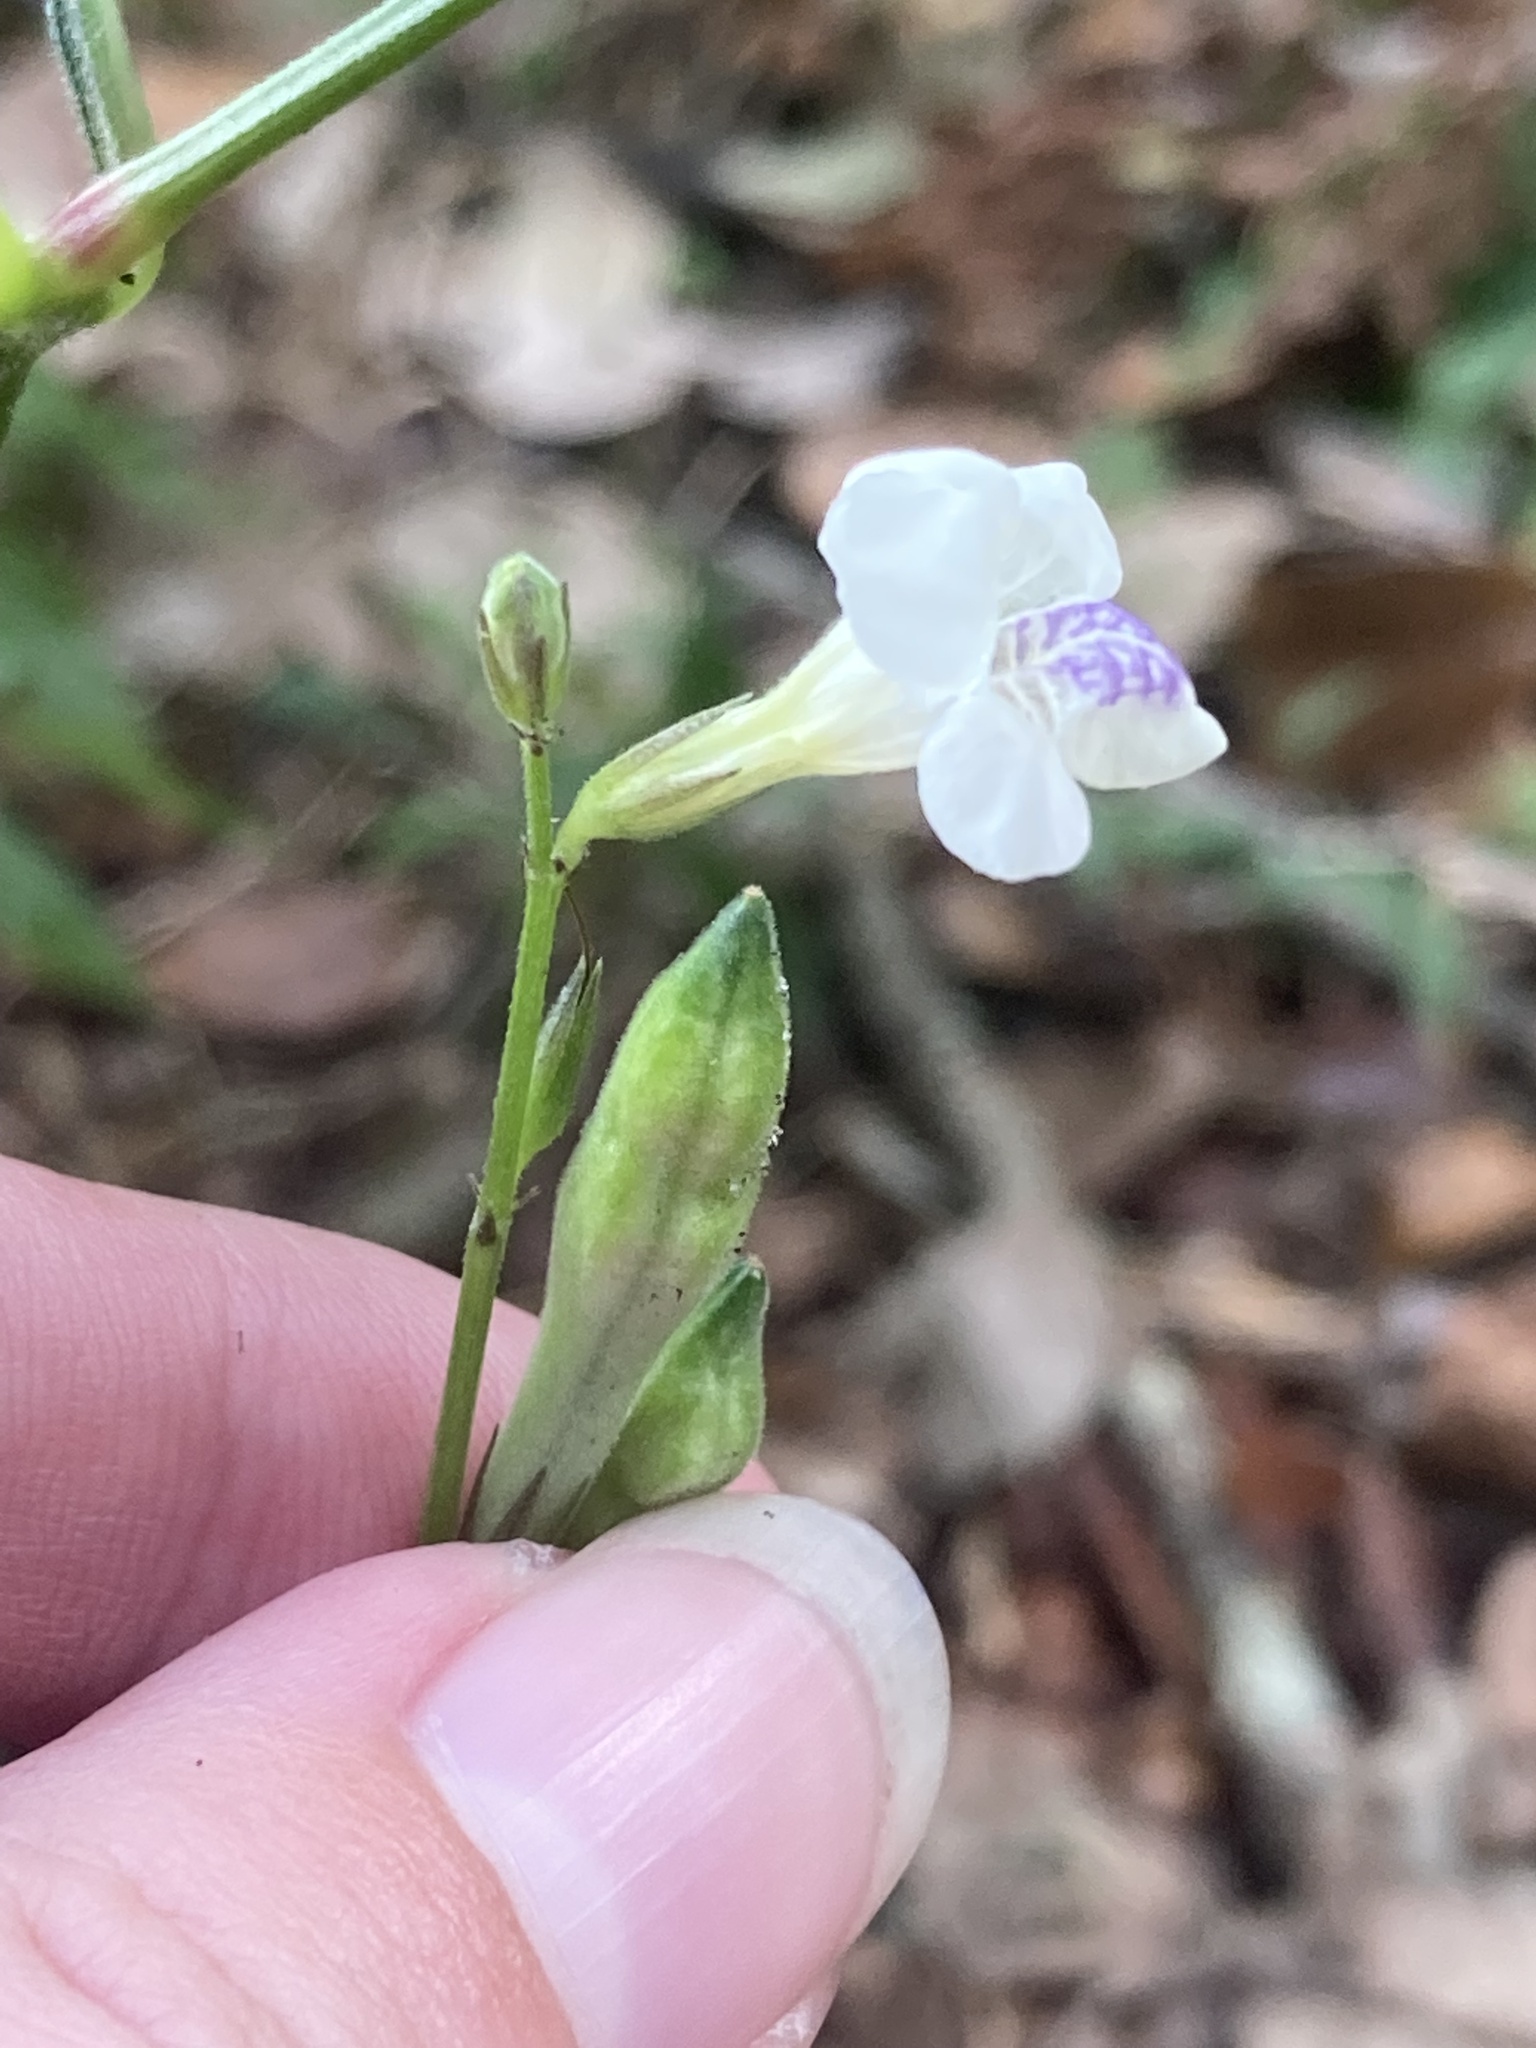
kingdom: Plantae
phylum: Tracheophyta
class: Magnoliopsida
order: Lamiales
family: Acanthaceae
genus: Asystasia
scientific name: Asystasia intrusa
